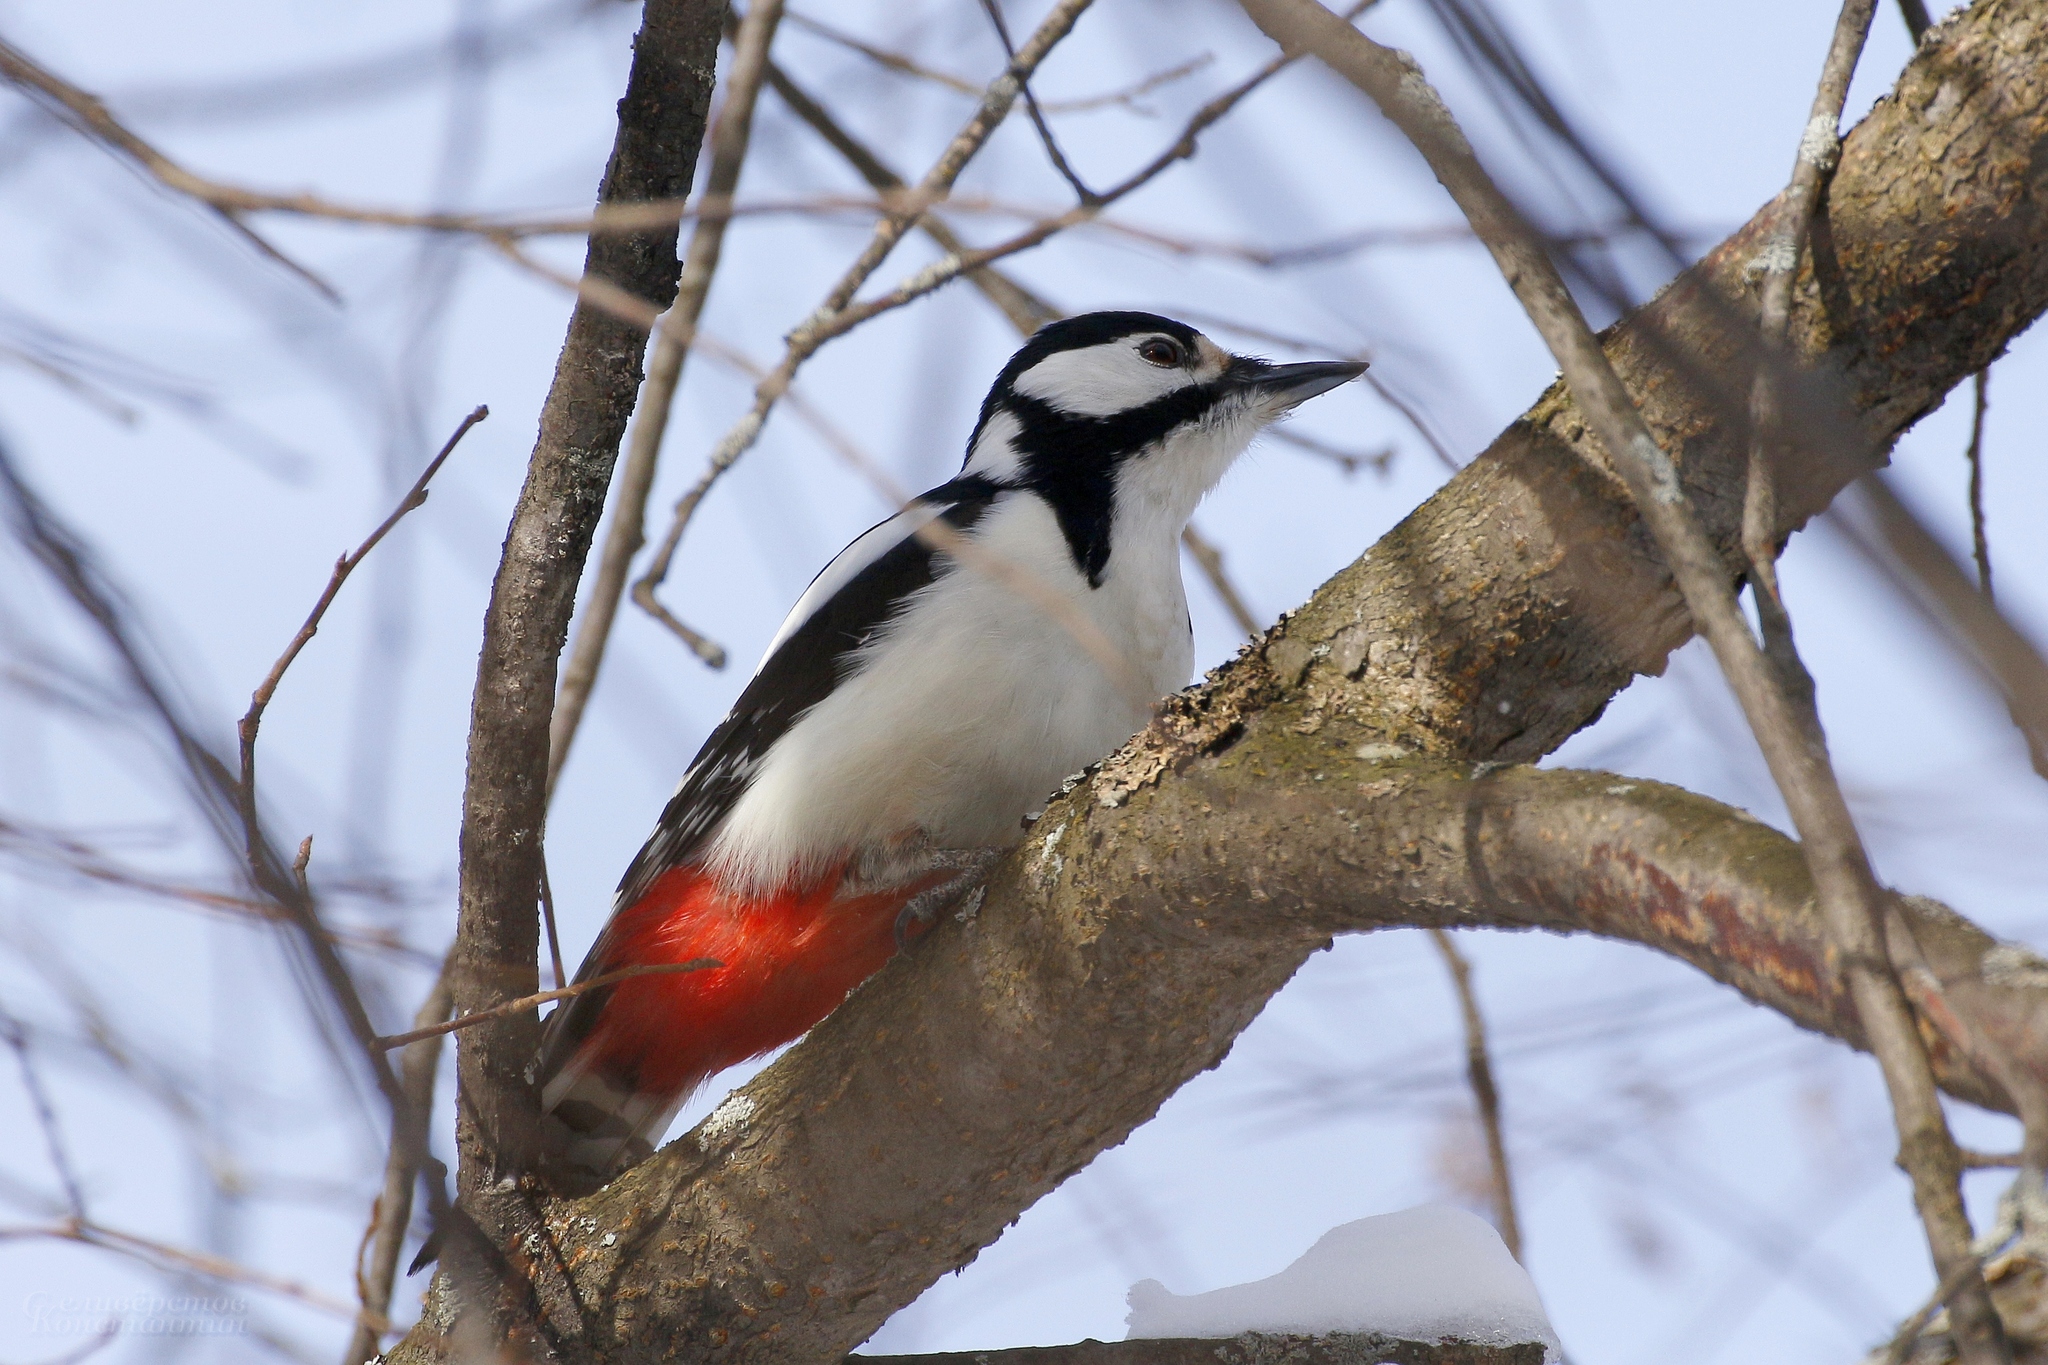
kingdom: Animalia
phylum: Chordata
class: Aves
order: Piciformes
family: Picidae
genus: Dendrocopos
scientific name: Dendrocopos major
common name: Great spotted woodpecker
